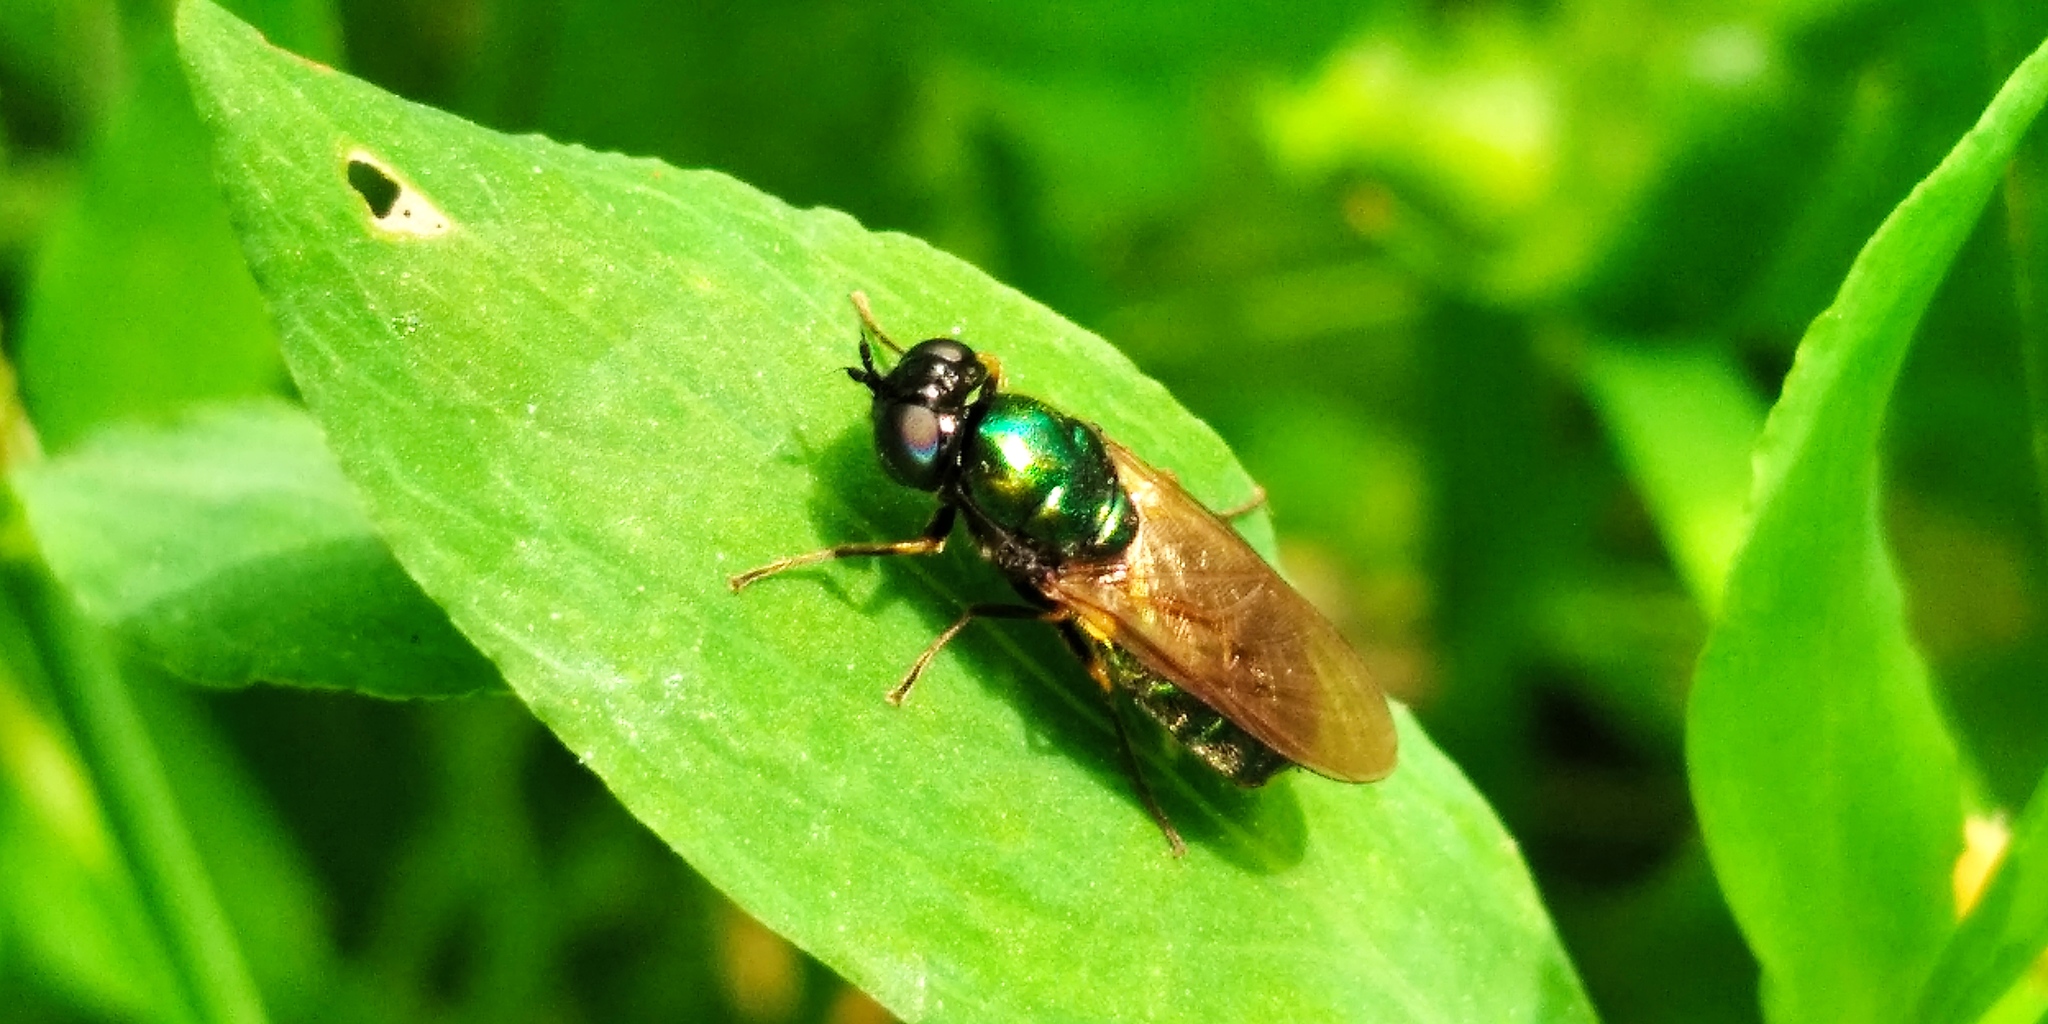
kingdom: Animalia
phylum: Arthropoda
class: Insecta
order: Diptera
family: Stratiomyidae
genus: Chloromyia
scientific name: Chloromyia formosa
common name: Soldier fly
